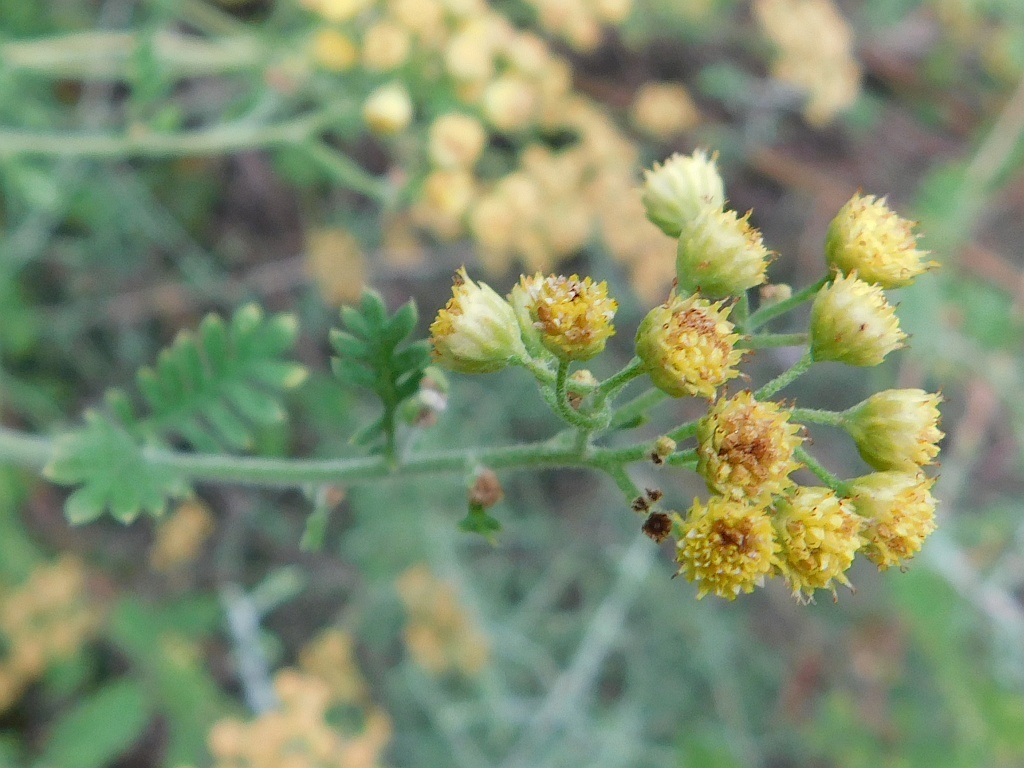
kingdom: Plantae
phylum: Tracheophyta
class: Magnoliopsida
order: Asterales
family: Asteraceae
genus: Hippia
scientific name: Hippia frutescens
